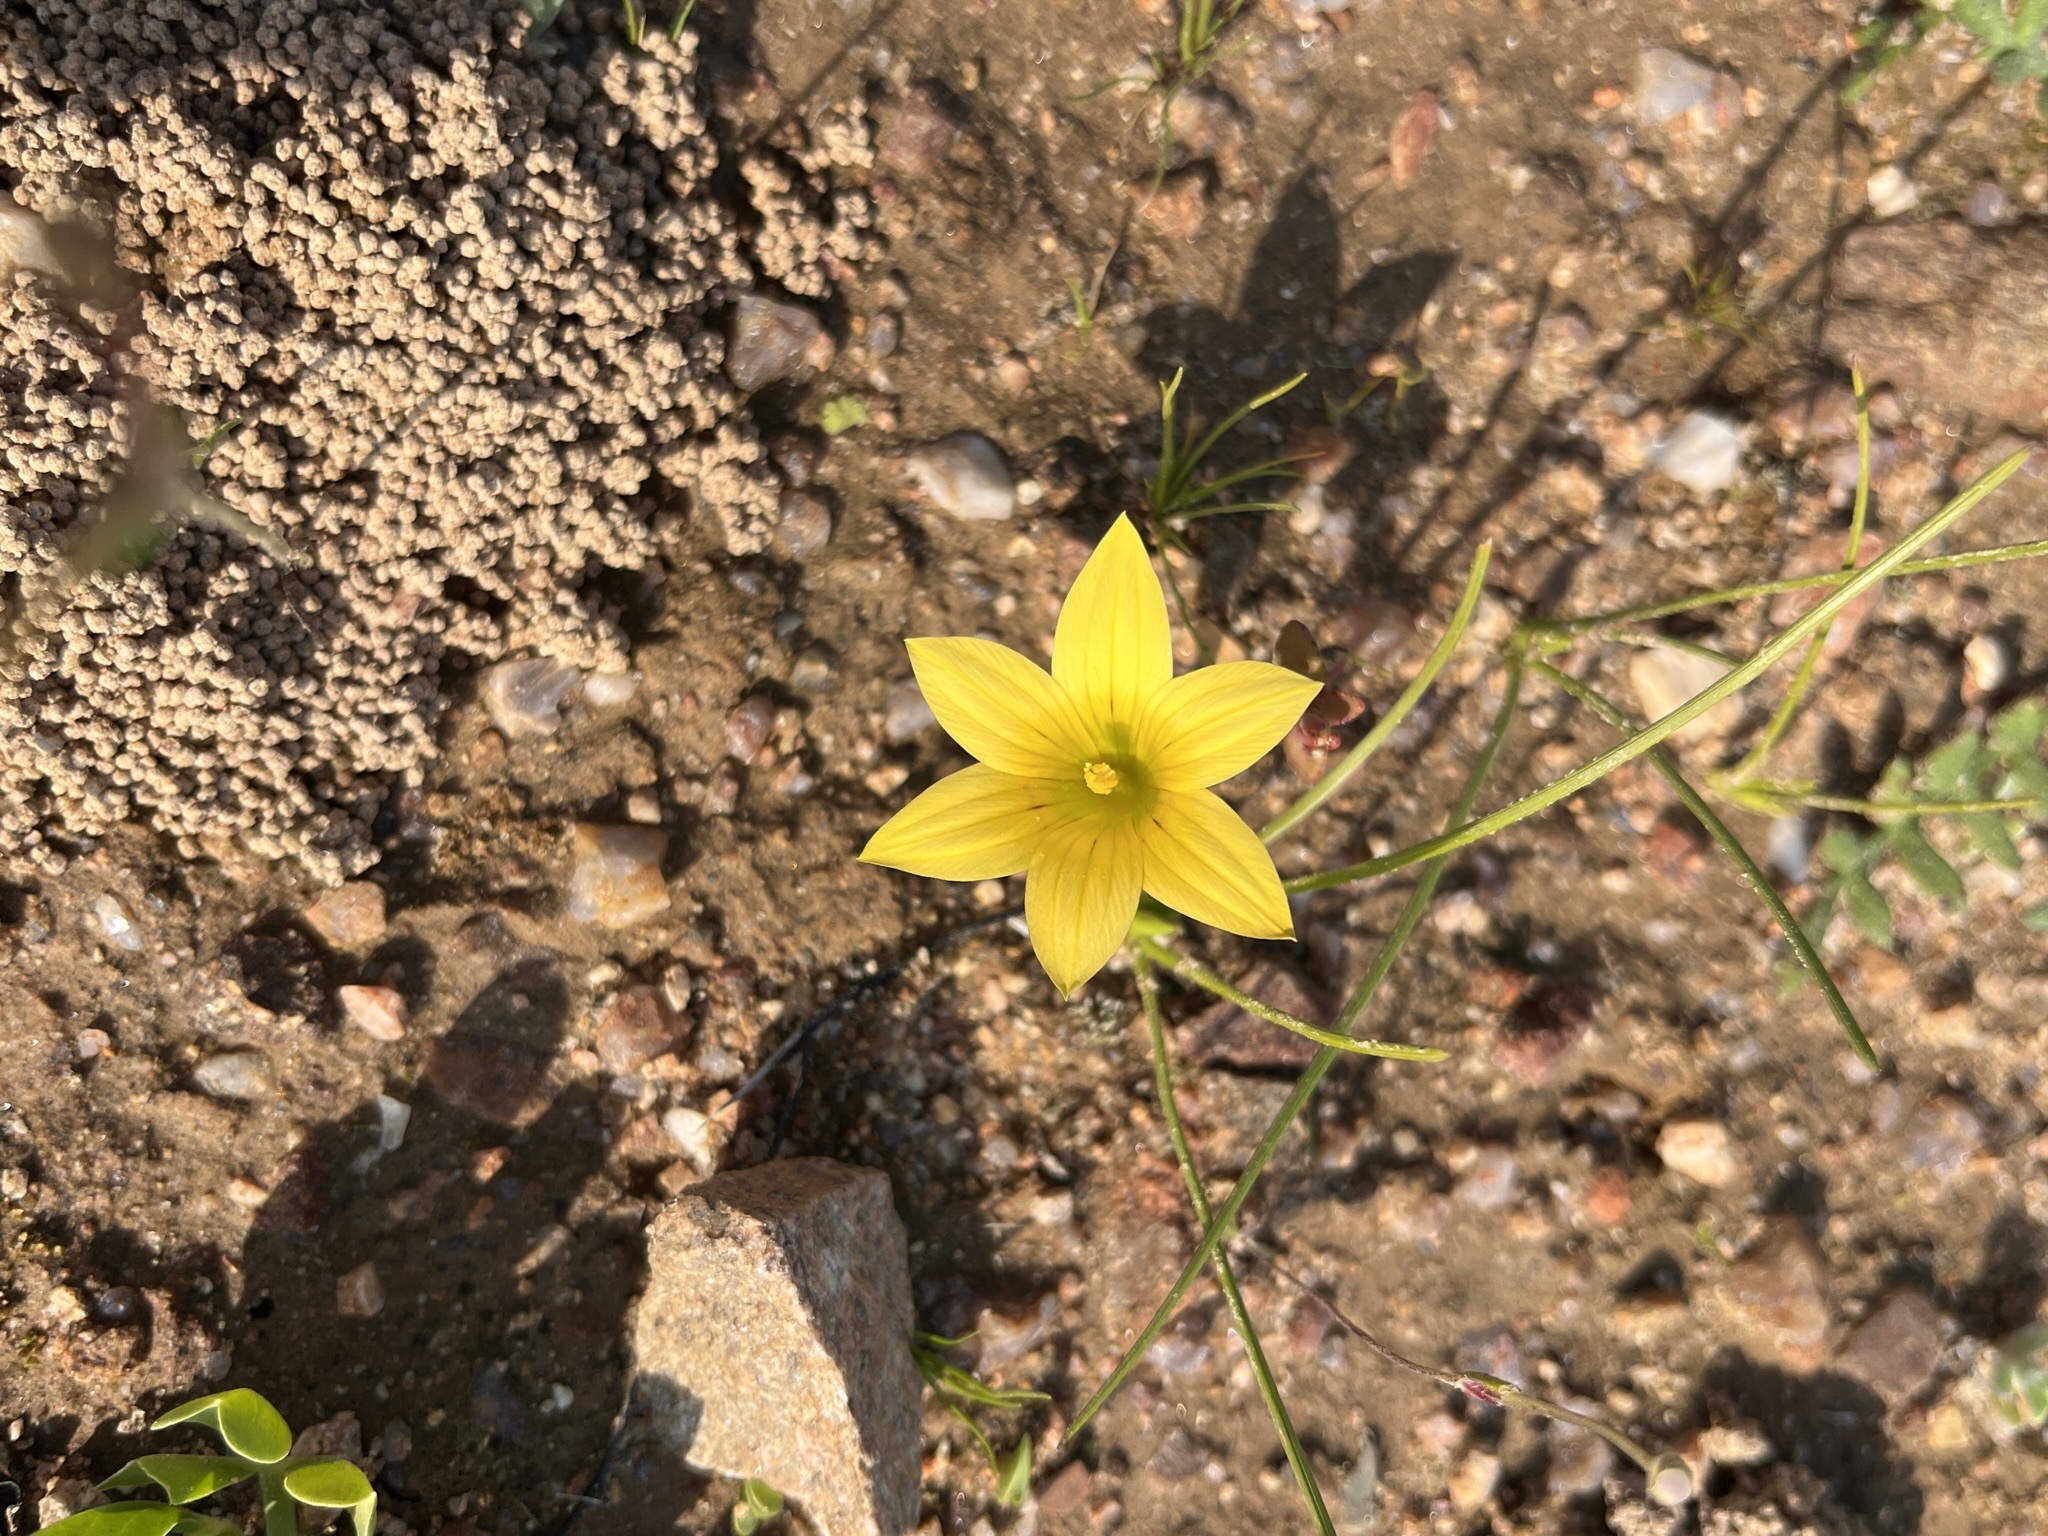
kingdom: Plantae
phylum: Tracheophyta
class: Liliopsida
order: Asparagales
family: Iridaceae
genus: Romulea
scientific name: Romulea citrina
